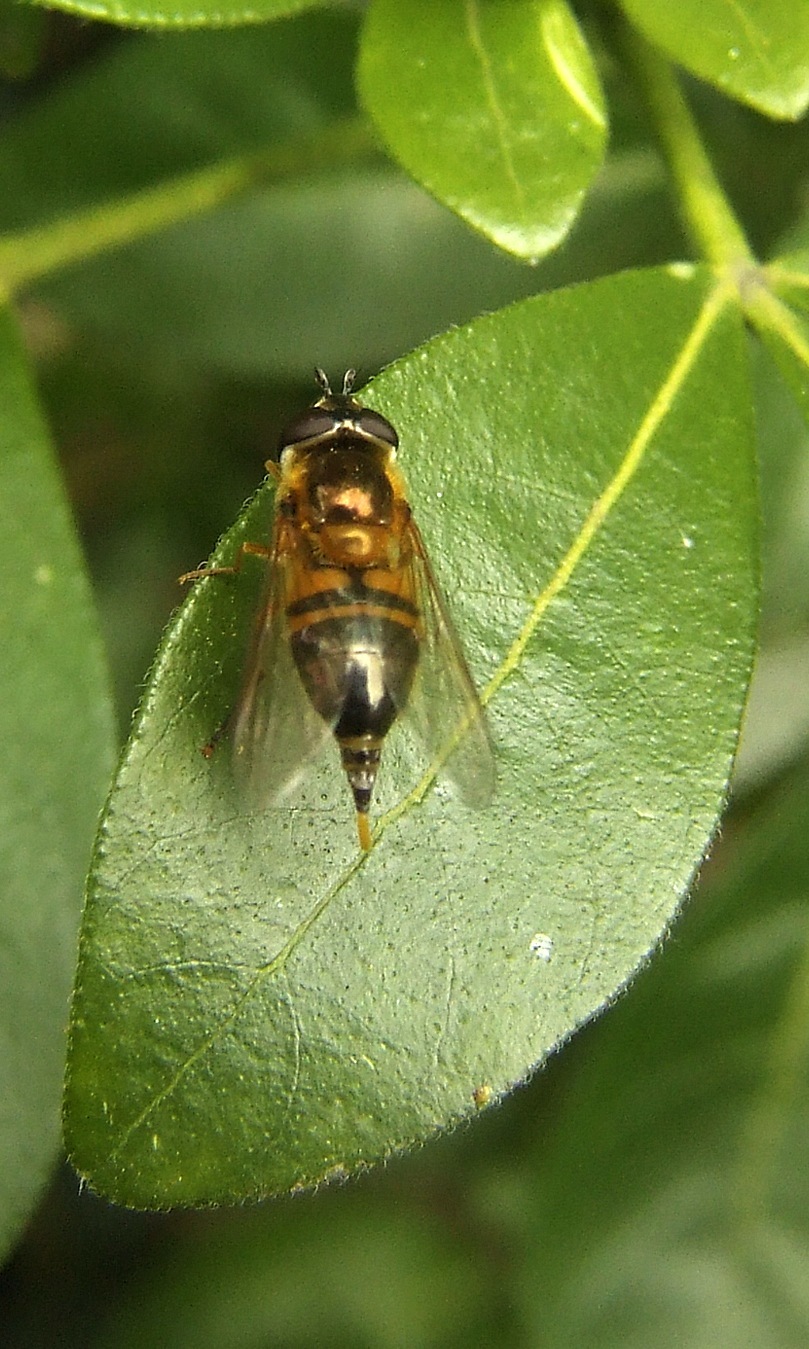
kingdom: Animalia
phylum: Arthropoda
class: Insecta
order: Diptera
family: Syrphidae
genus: Epistrophe
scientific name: Epistrophe eligans
